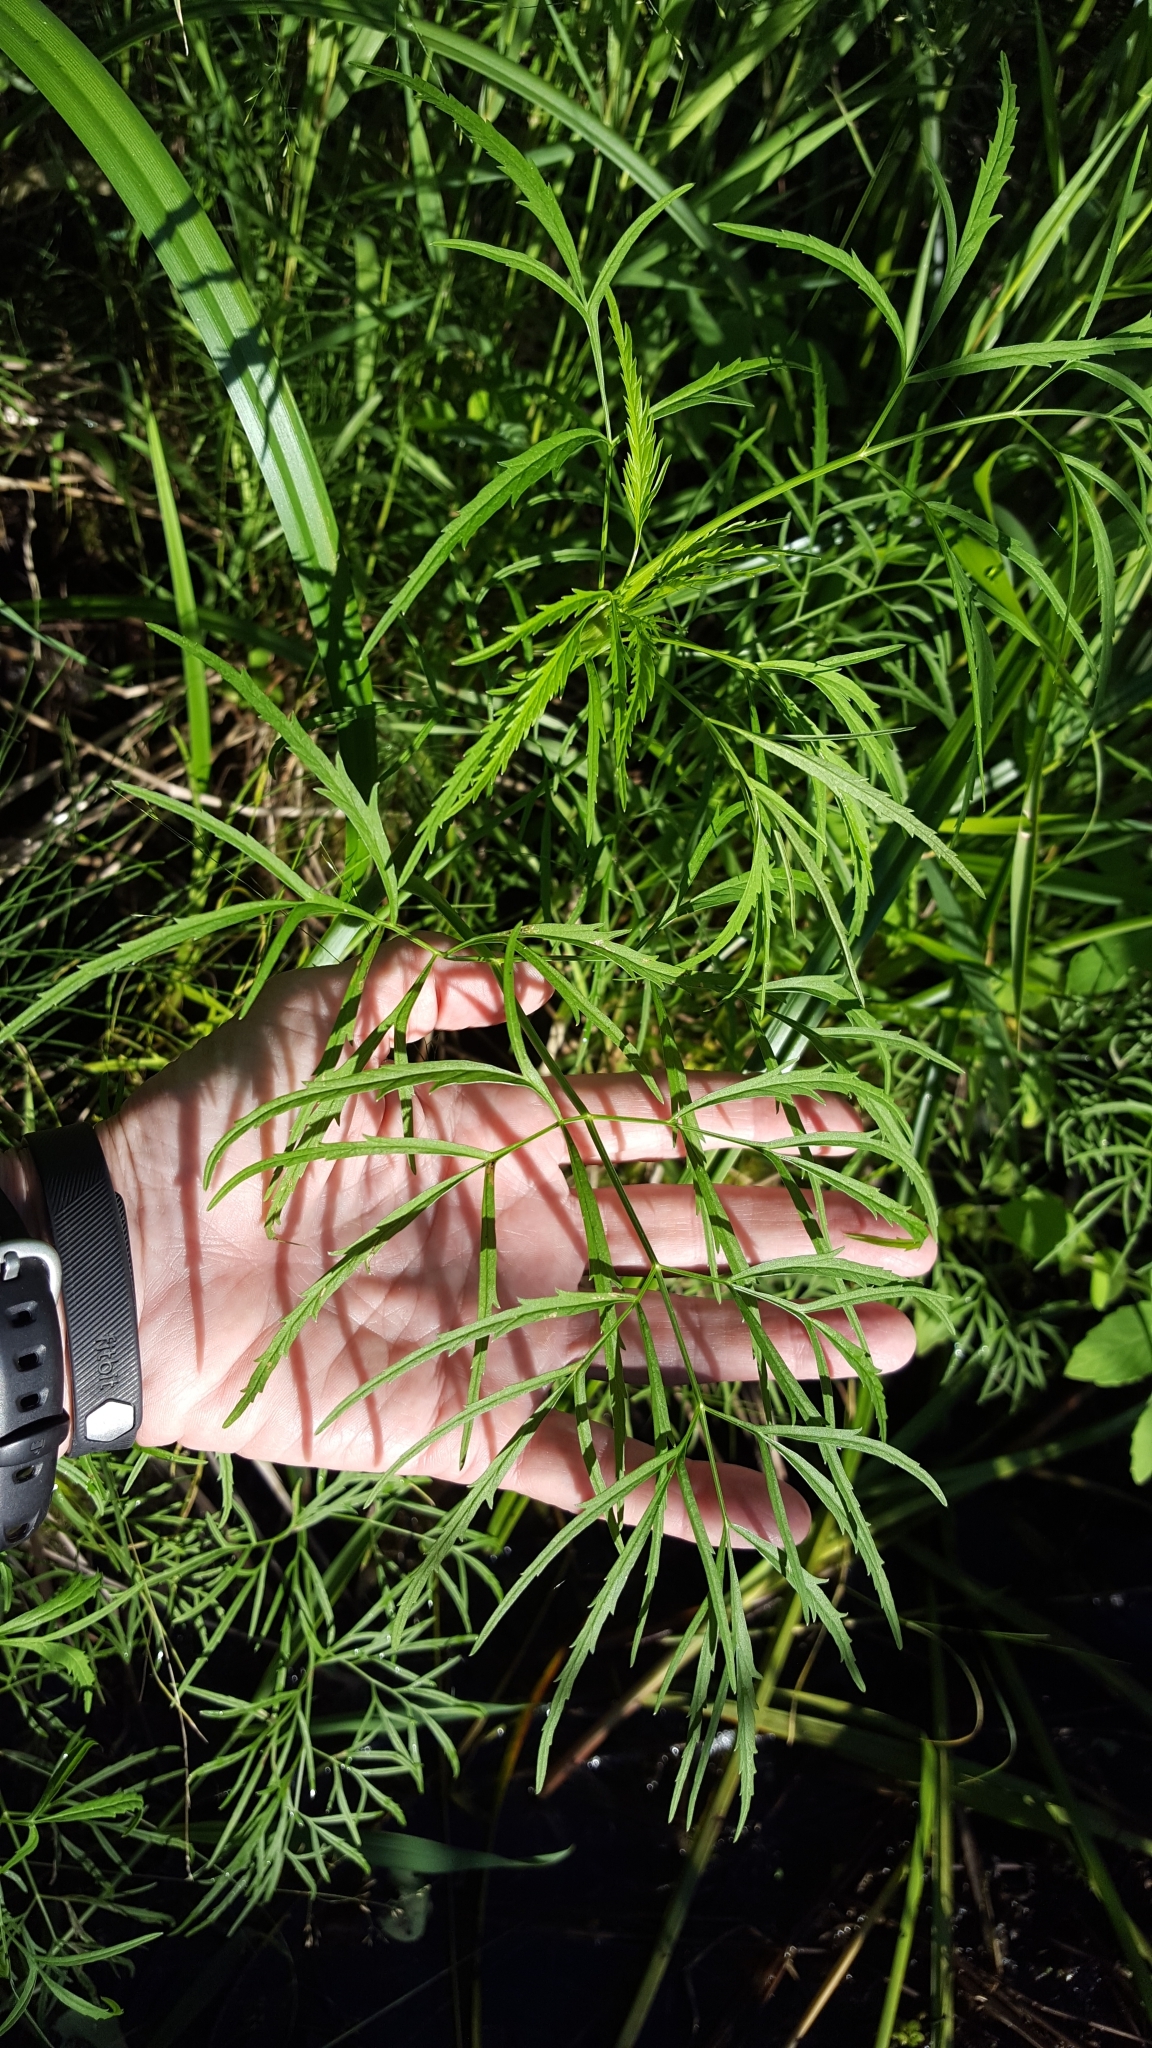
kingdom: Plantae
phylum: Tracheophyta
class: Magnoliopsida
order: Apiales
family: Apiaceae
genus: Cicuta
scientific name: Cicuta bulbifera
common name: Bulb-bearing water-hemlock
